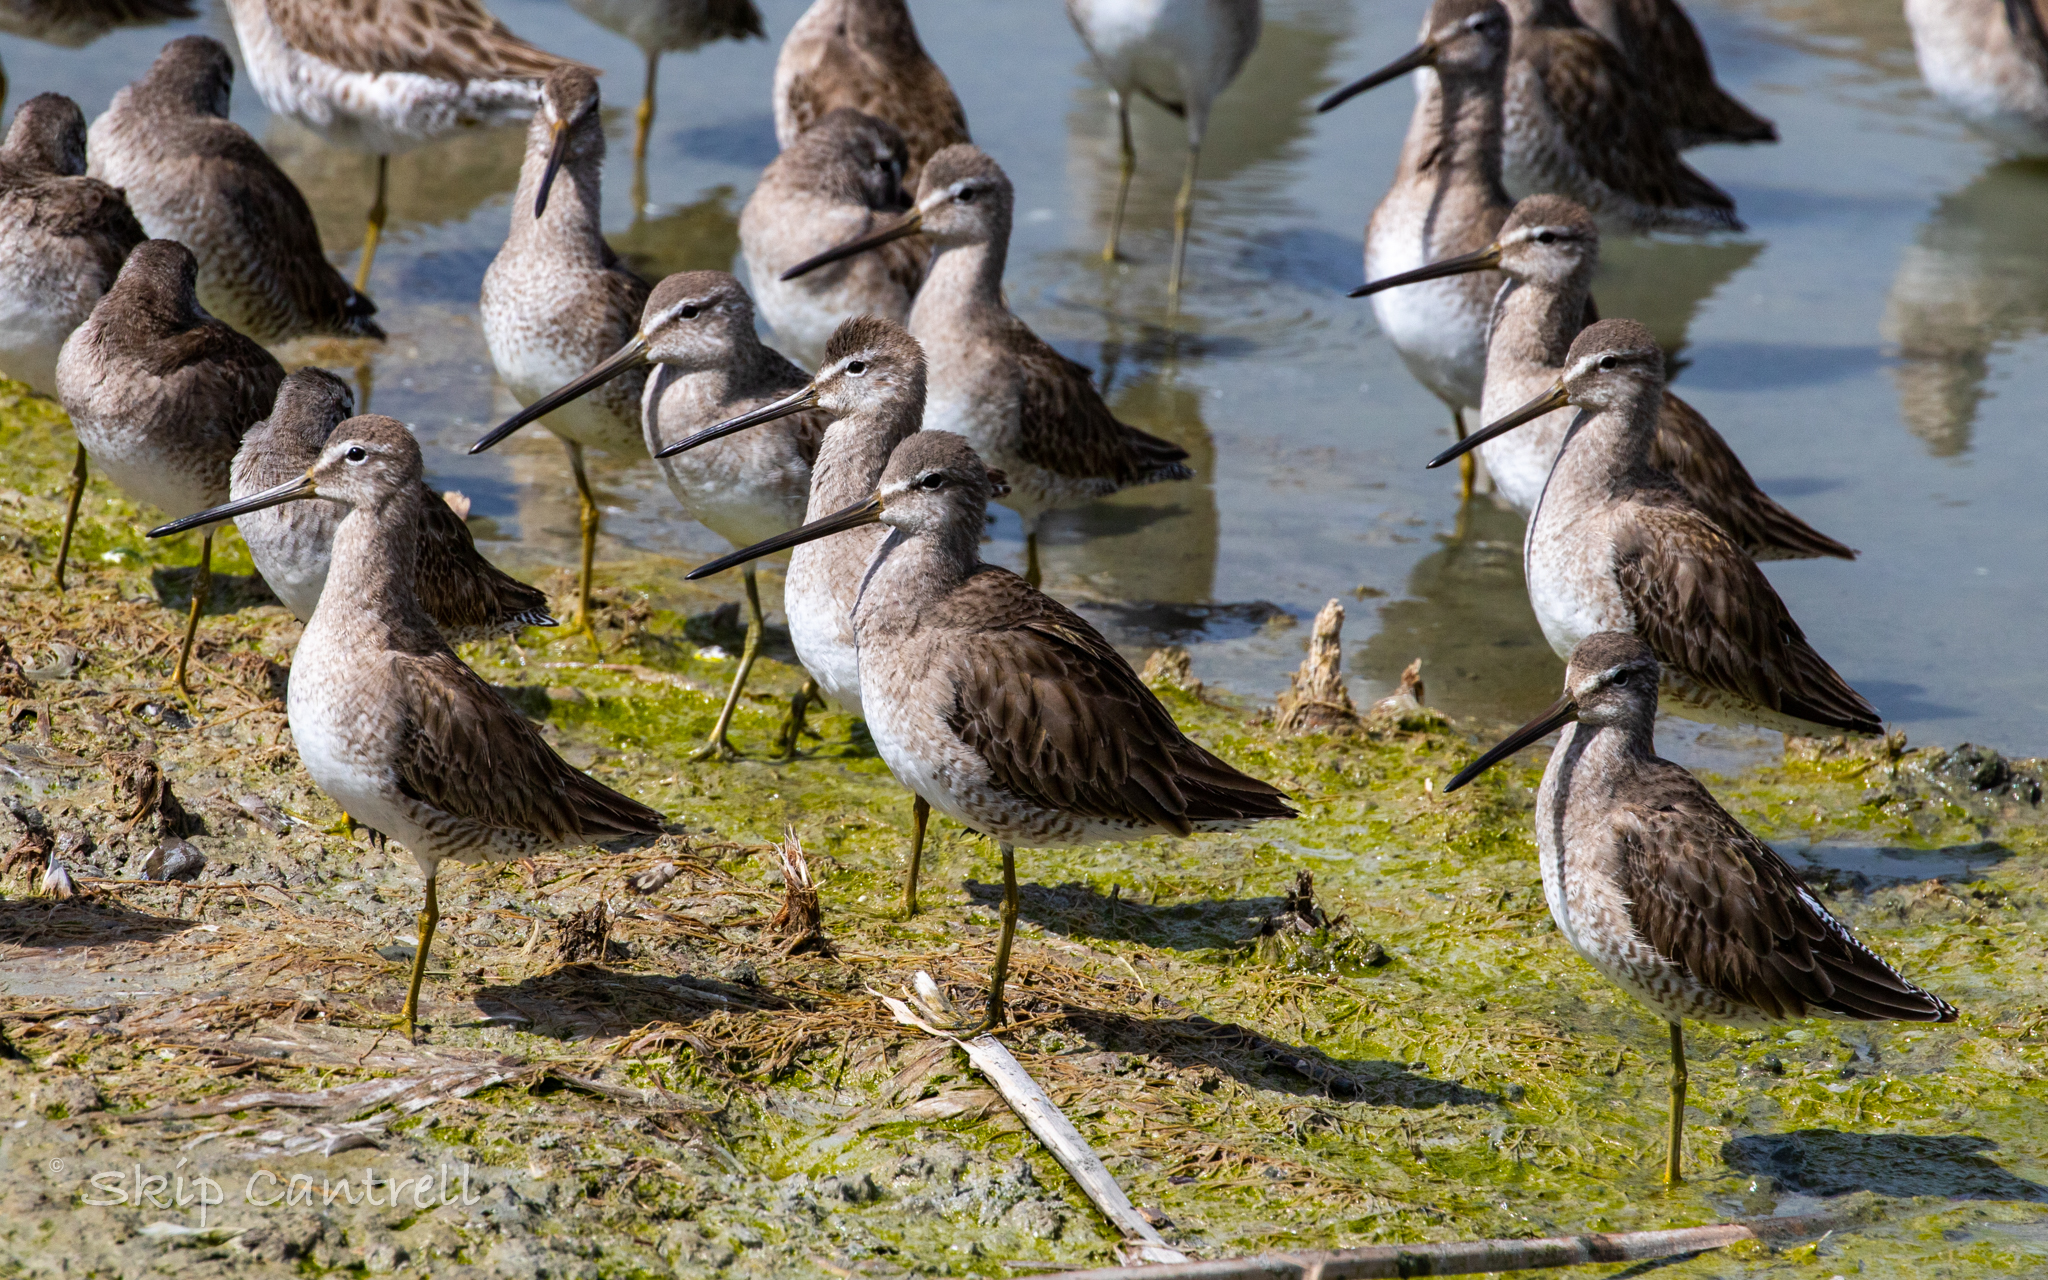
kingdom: Animalia
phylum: Chordata
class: Aves
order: Charadriiformes
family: Scolopacidae
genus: Limnodromus
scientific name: Limnodromus scolopaceus
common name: Long-billed dowitcher
